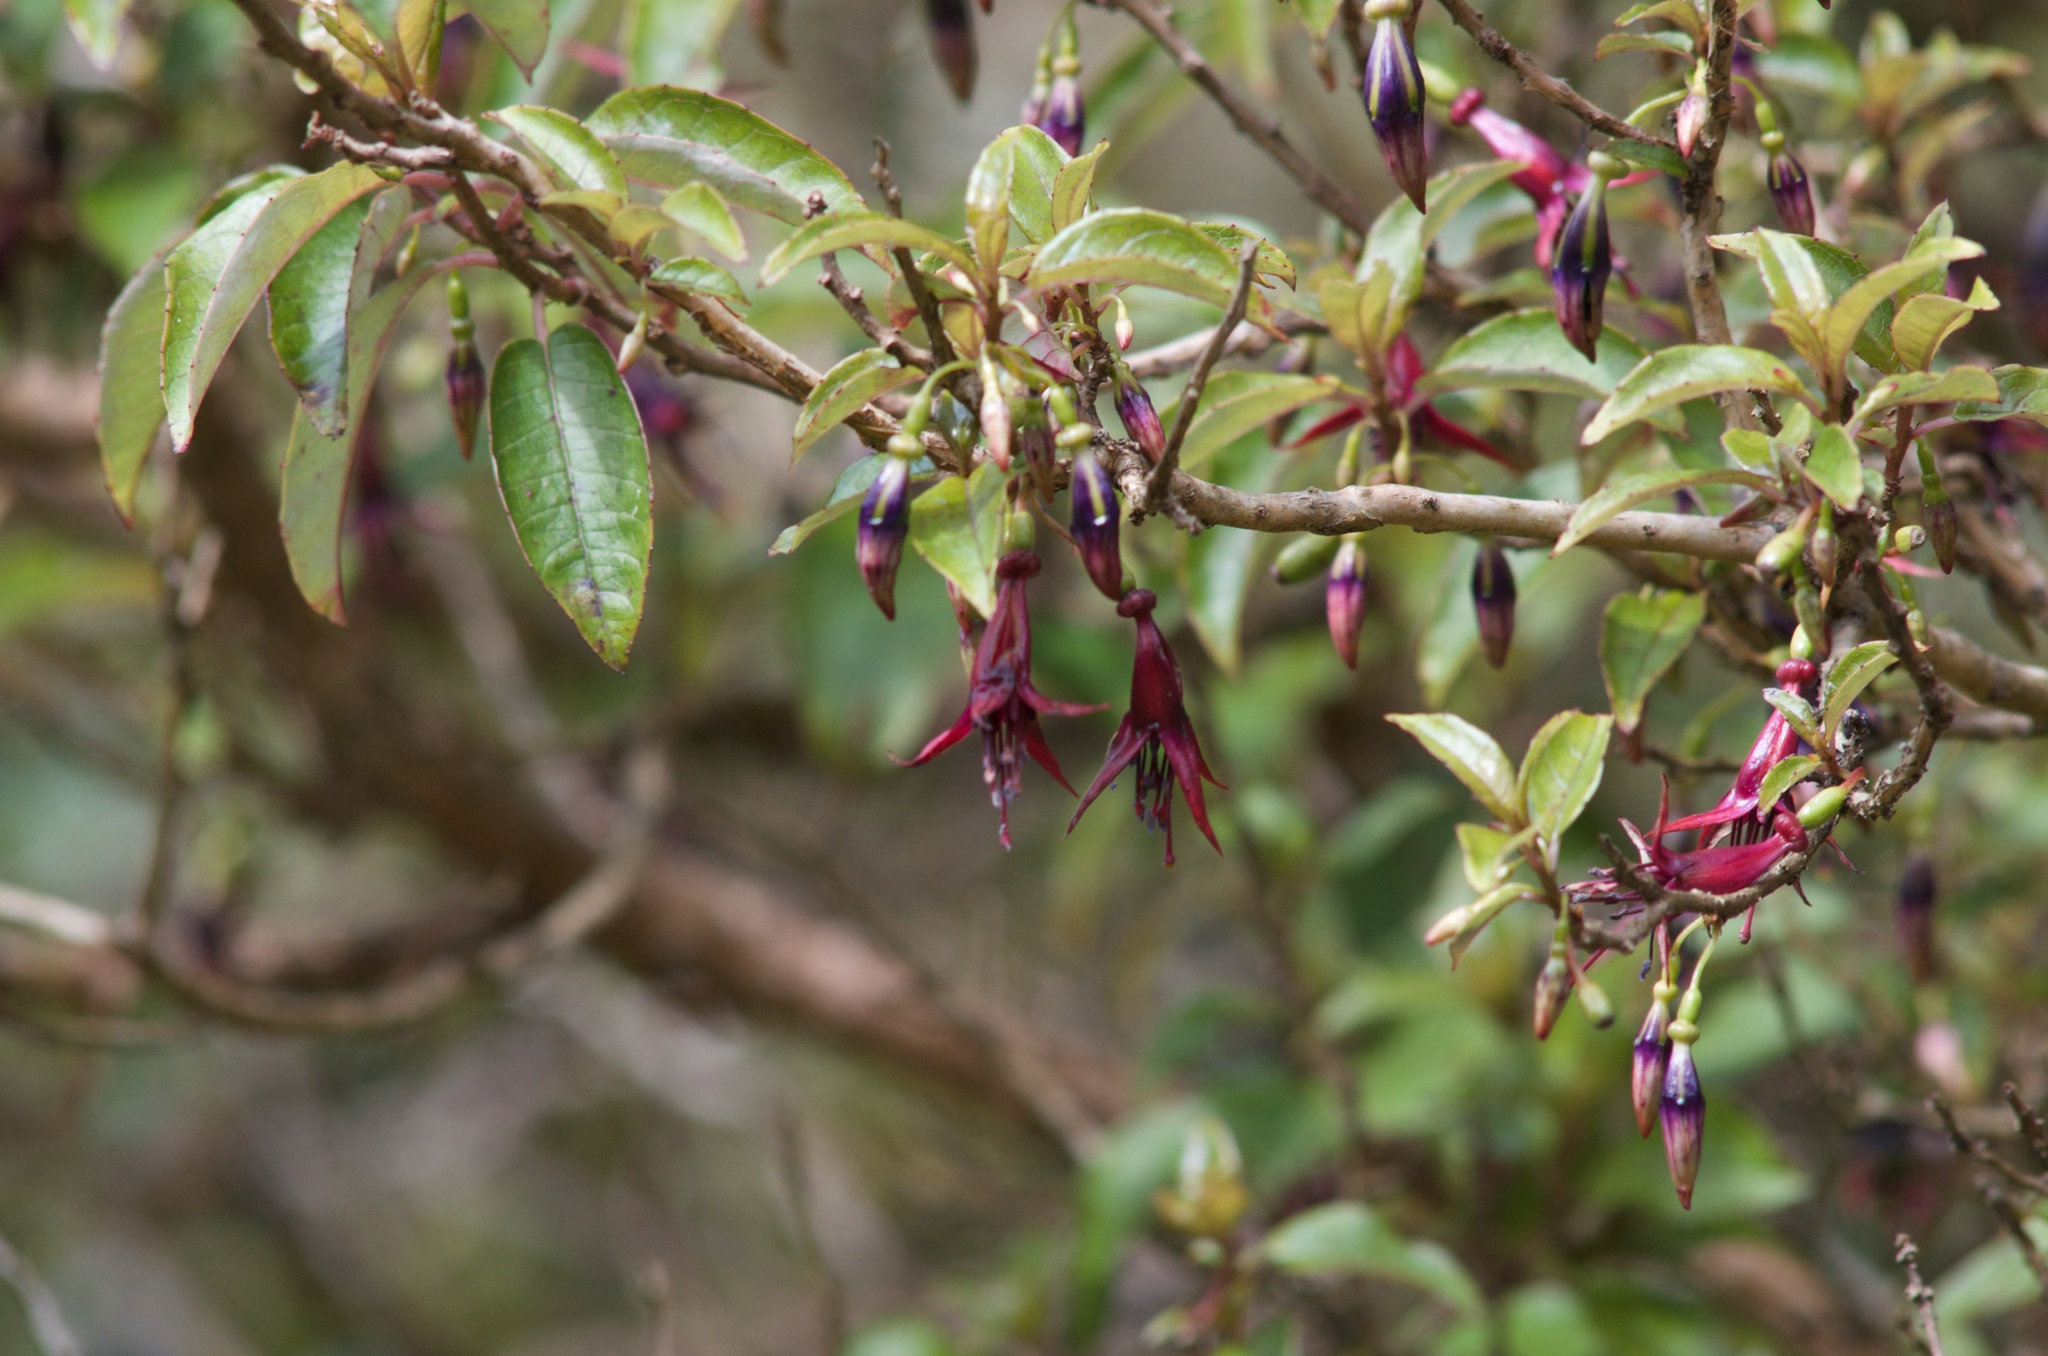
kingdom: Plantae
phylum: Tracheophyta
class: Magnoliopsida
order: Myrtales
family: Onagraceae
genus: Fuchsia
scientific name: Fuchsia excorticata
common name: Tree fuchsia
